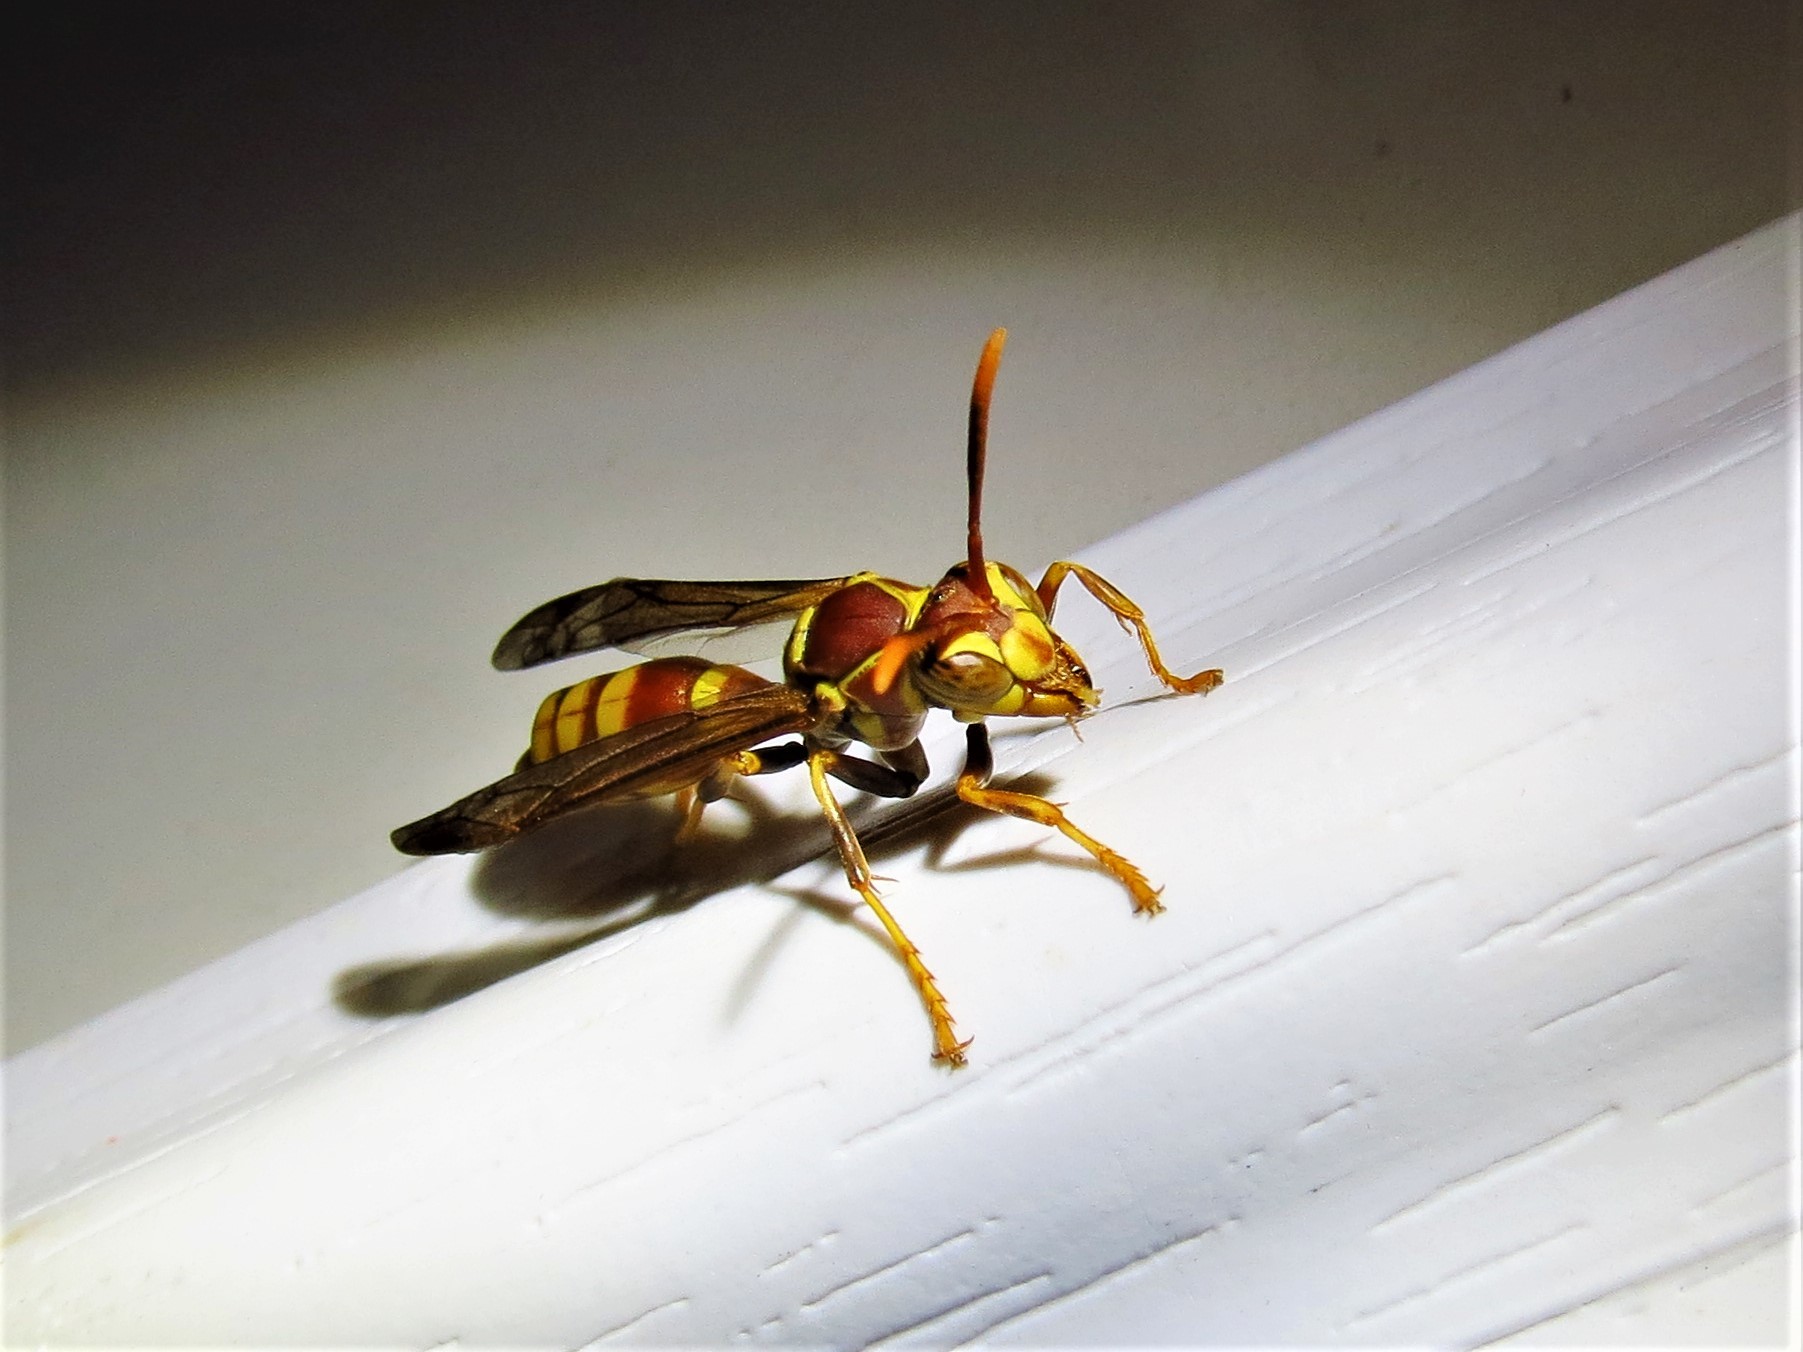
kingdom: Animalia
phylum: Arthropoda
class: Insecta
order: Hymenoptera
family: Eumenidae
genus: Polistes
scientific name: Polistes exclamans
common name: Paper wasp
